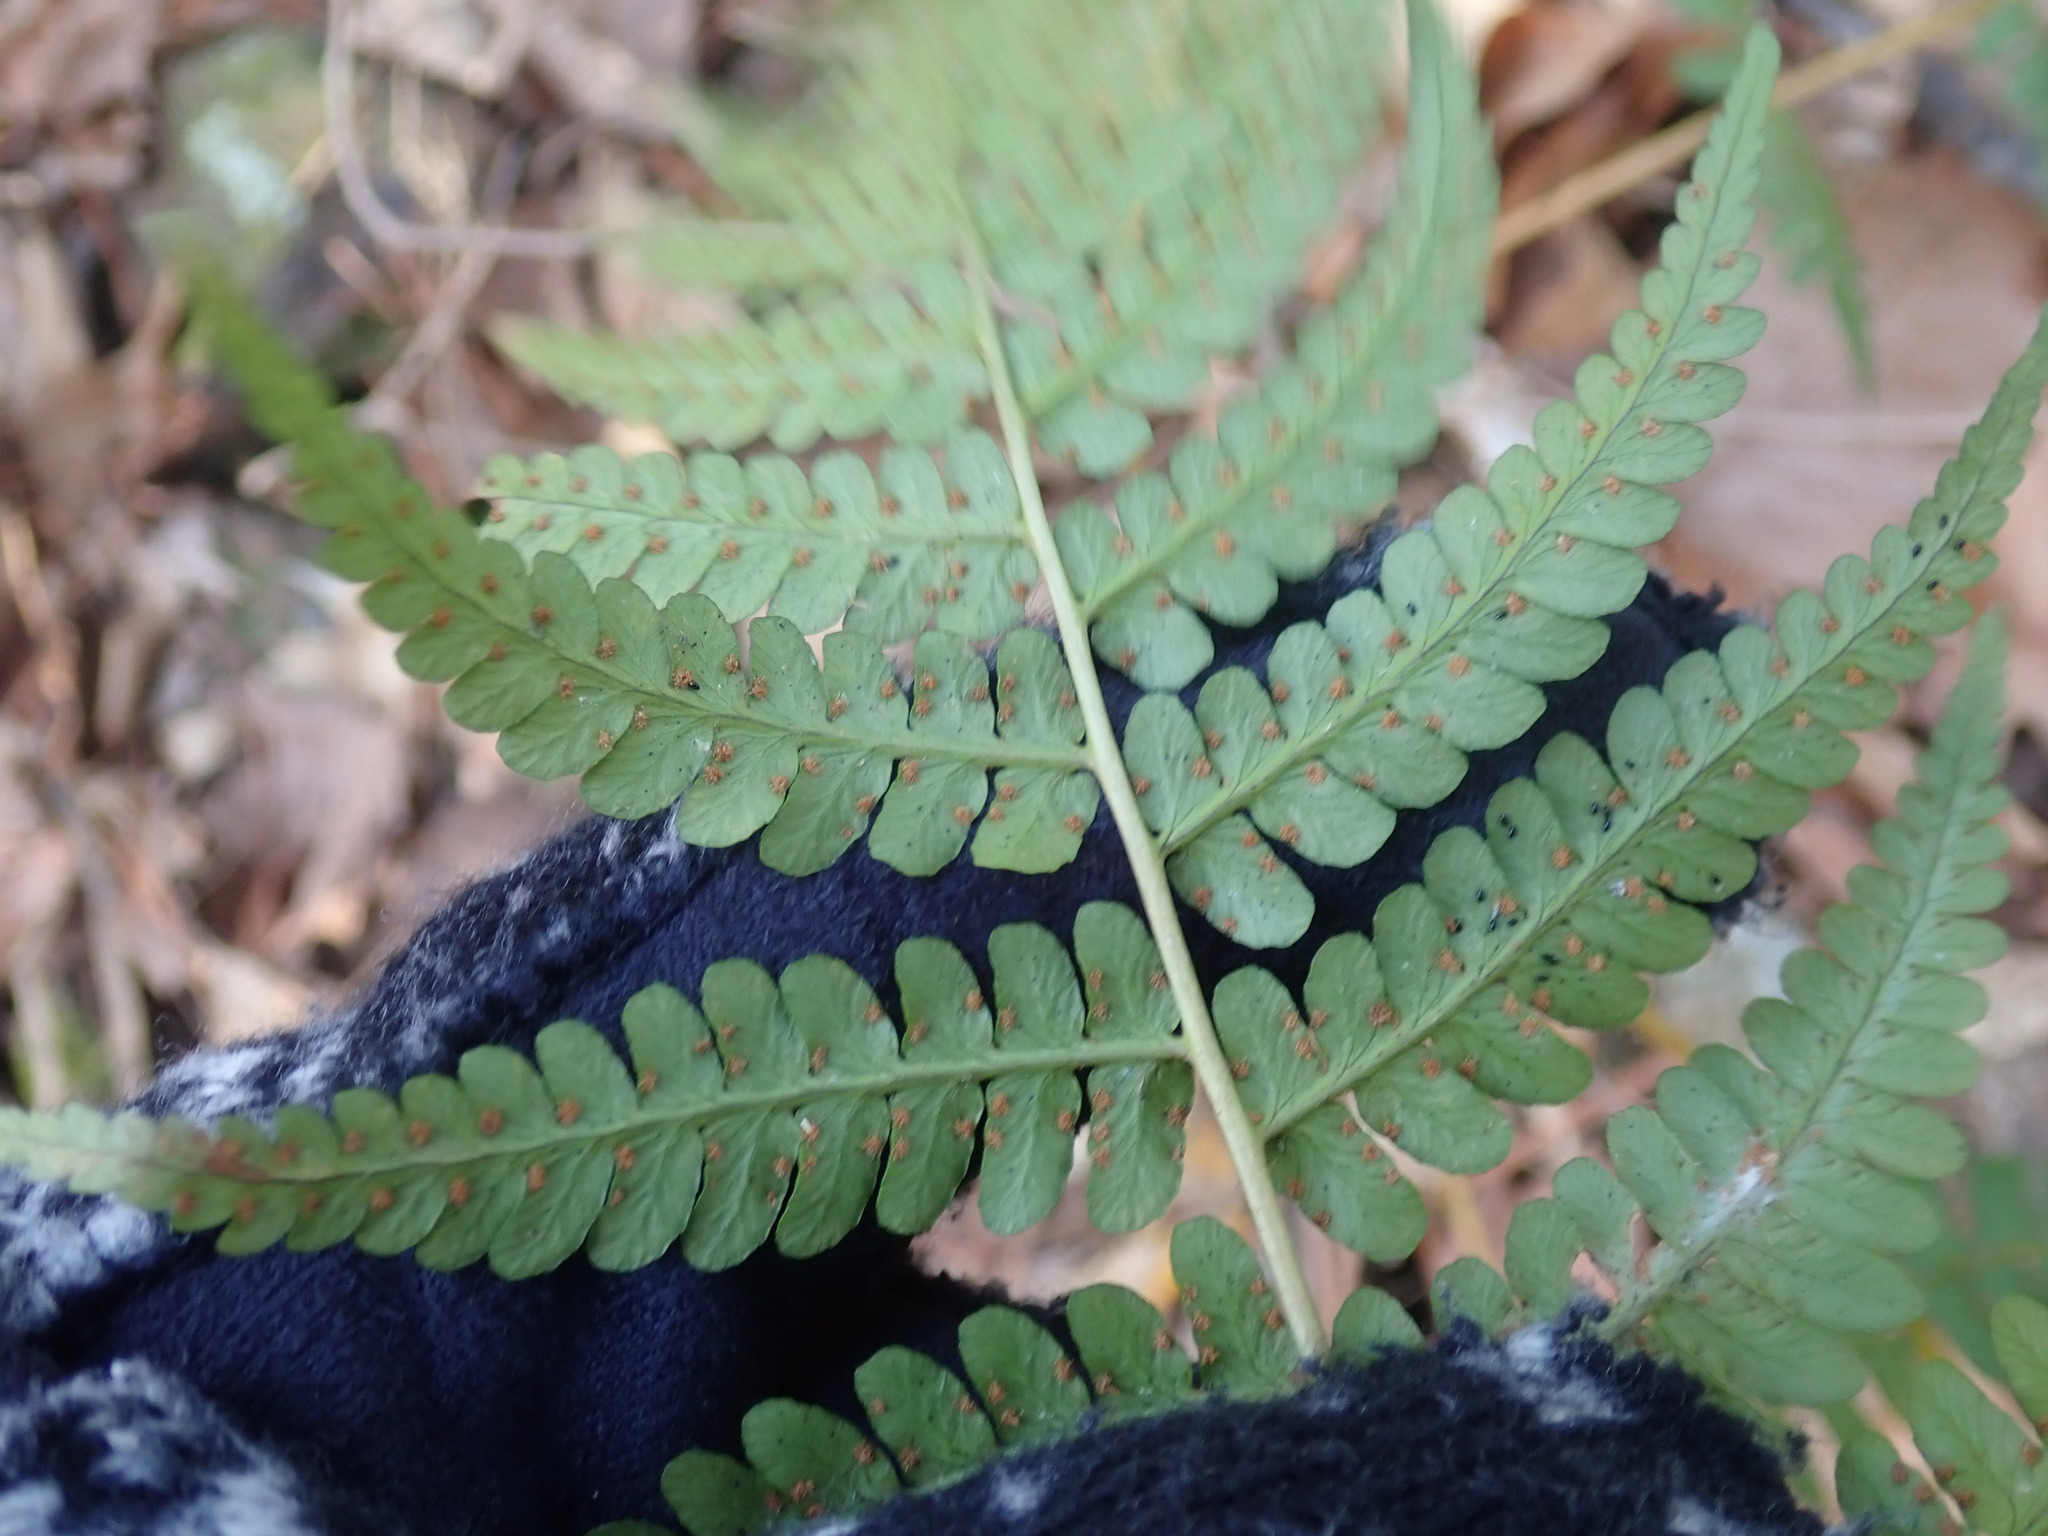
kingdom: Plantae
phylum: Tracheophyta
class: Polypodiopsida
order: Polypodiales
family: Dryopteridaceae
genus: Dryopteris
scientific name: Dryopteris marginalis
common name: Marginal wood fern
